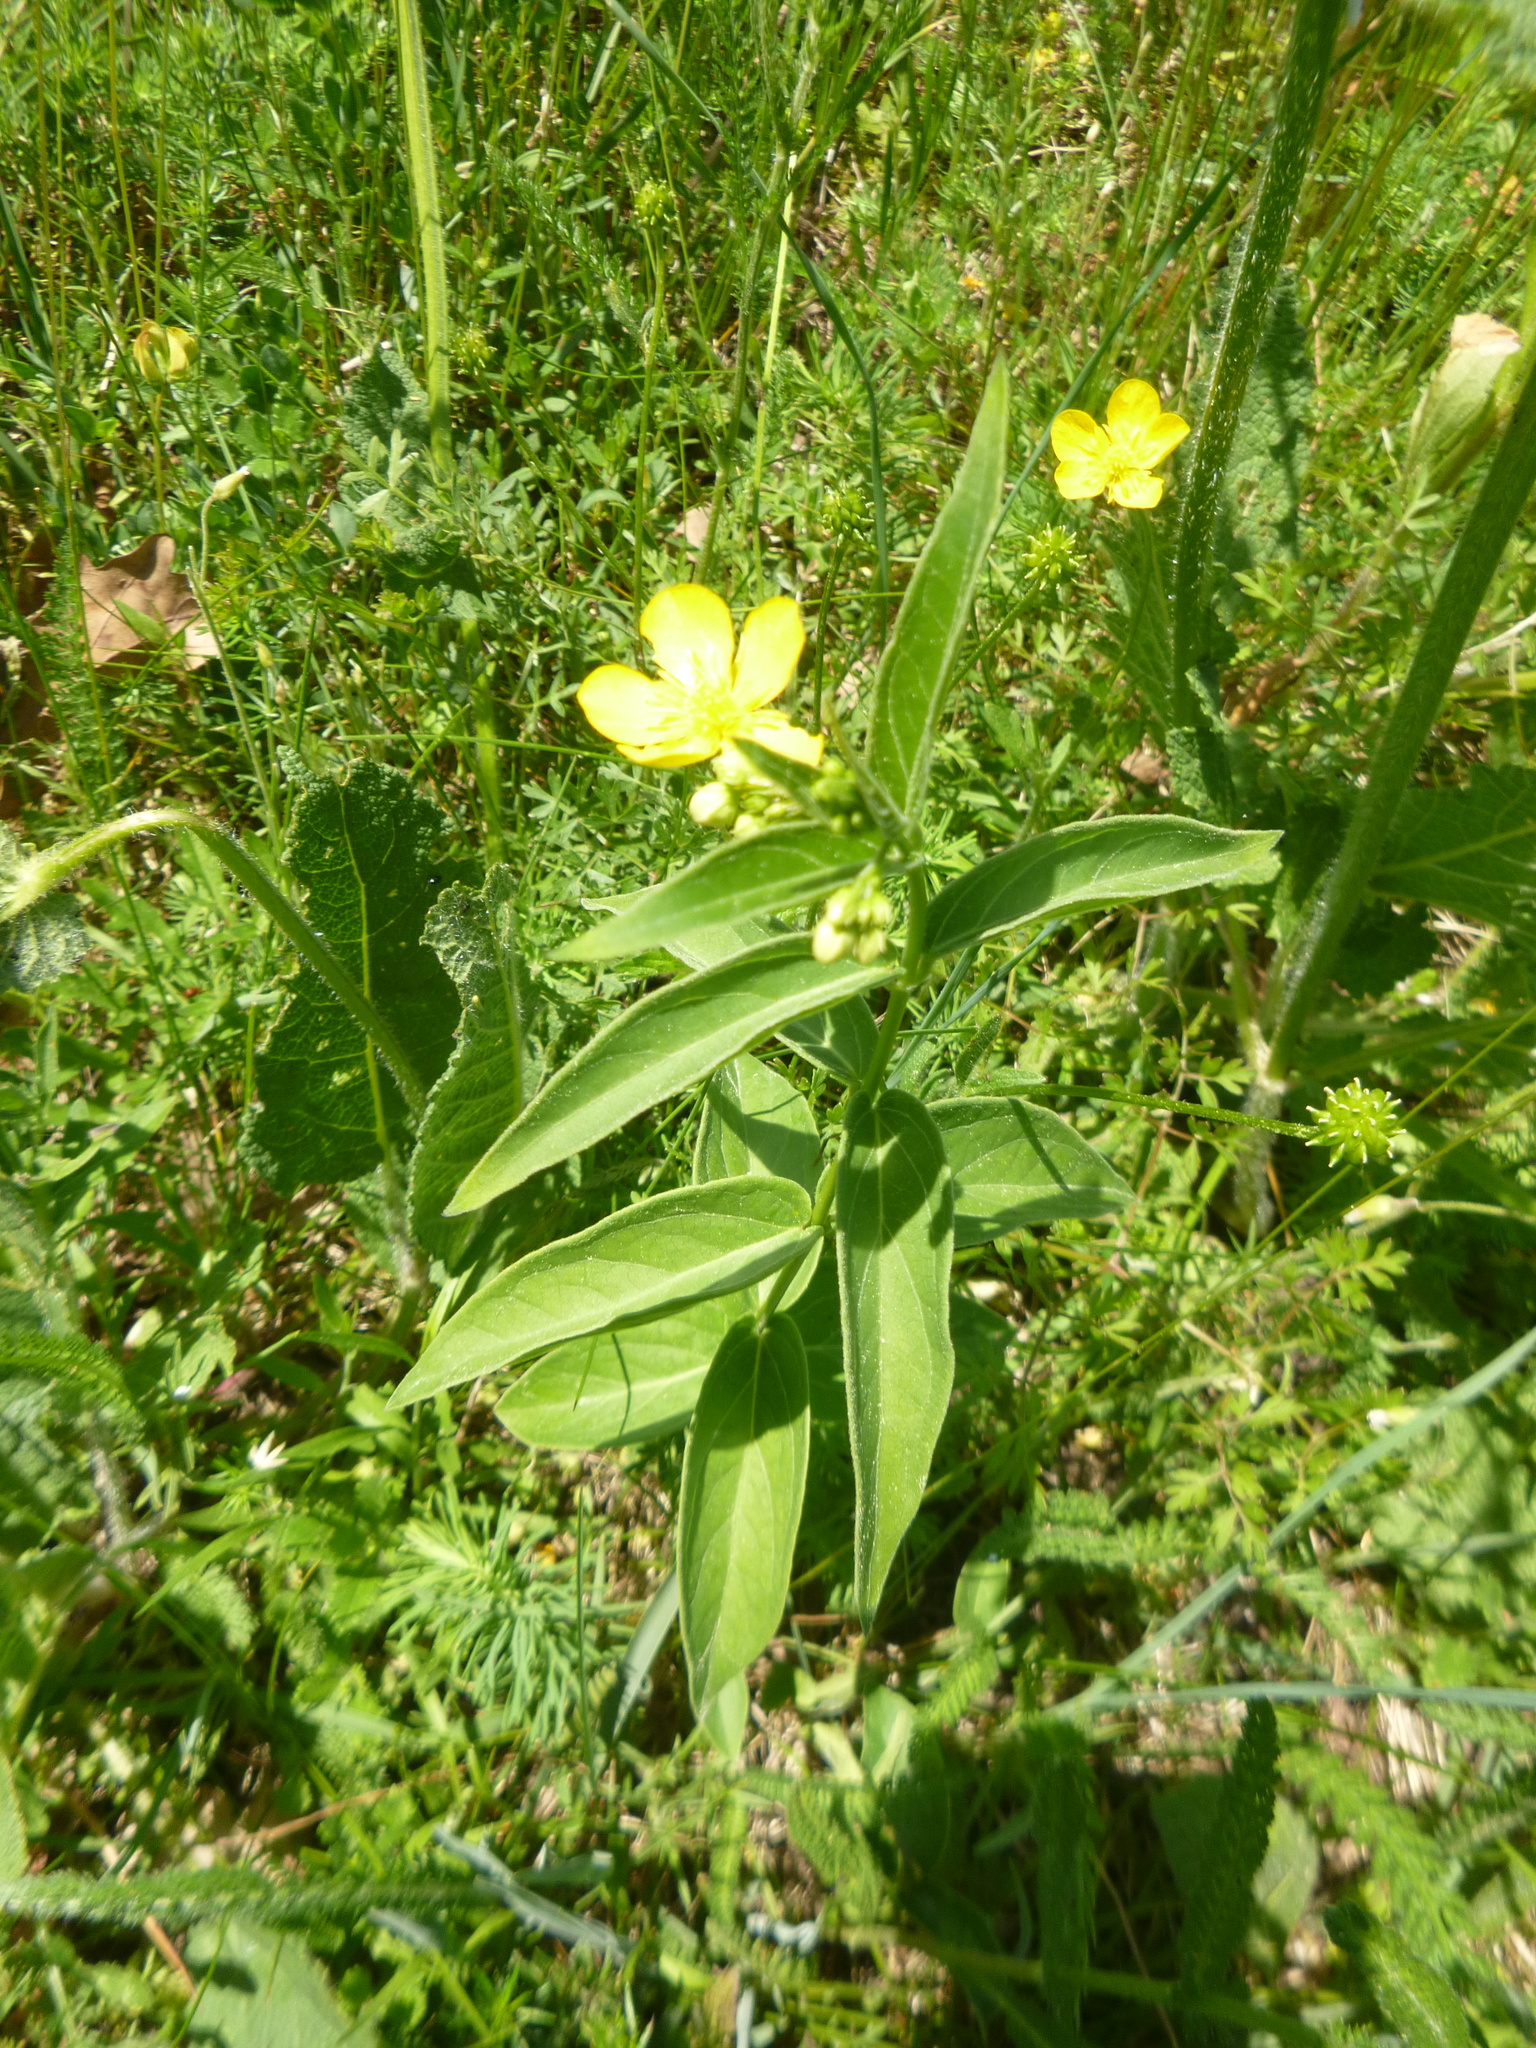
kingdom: Plantae
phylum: Tracheophyta
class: Magnoliopsida
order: Gentianales
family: Apocynaceae
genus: Vincetoxicum
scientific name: Vincetoxicum hirundinaria
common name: White swallowwort
